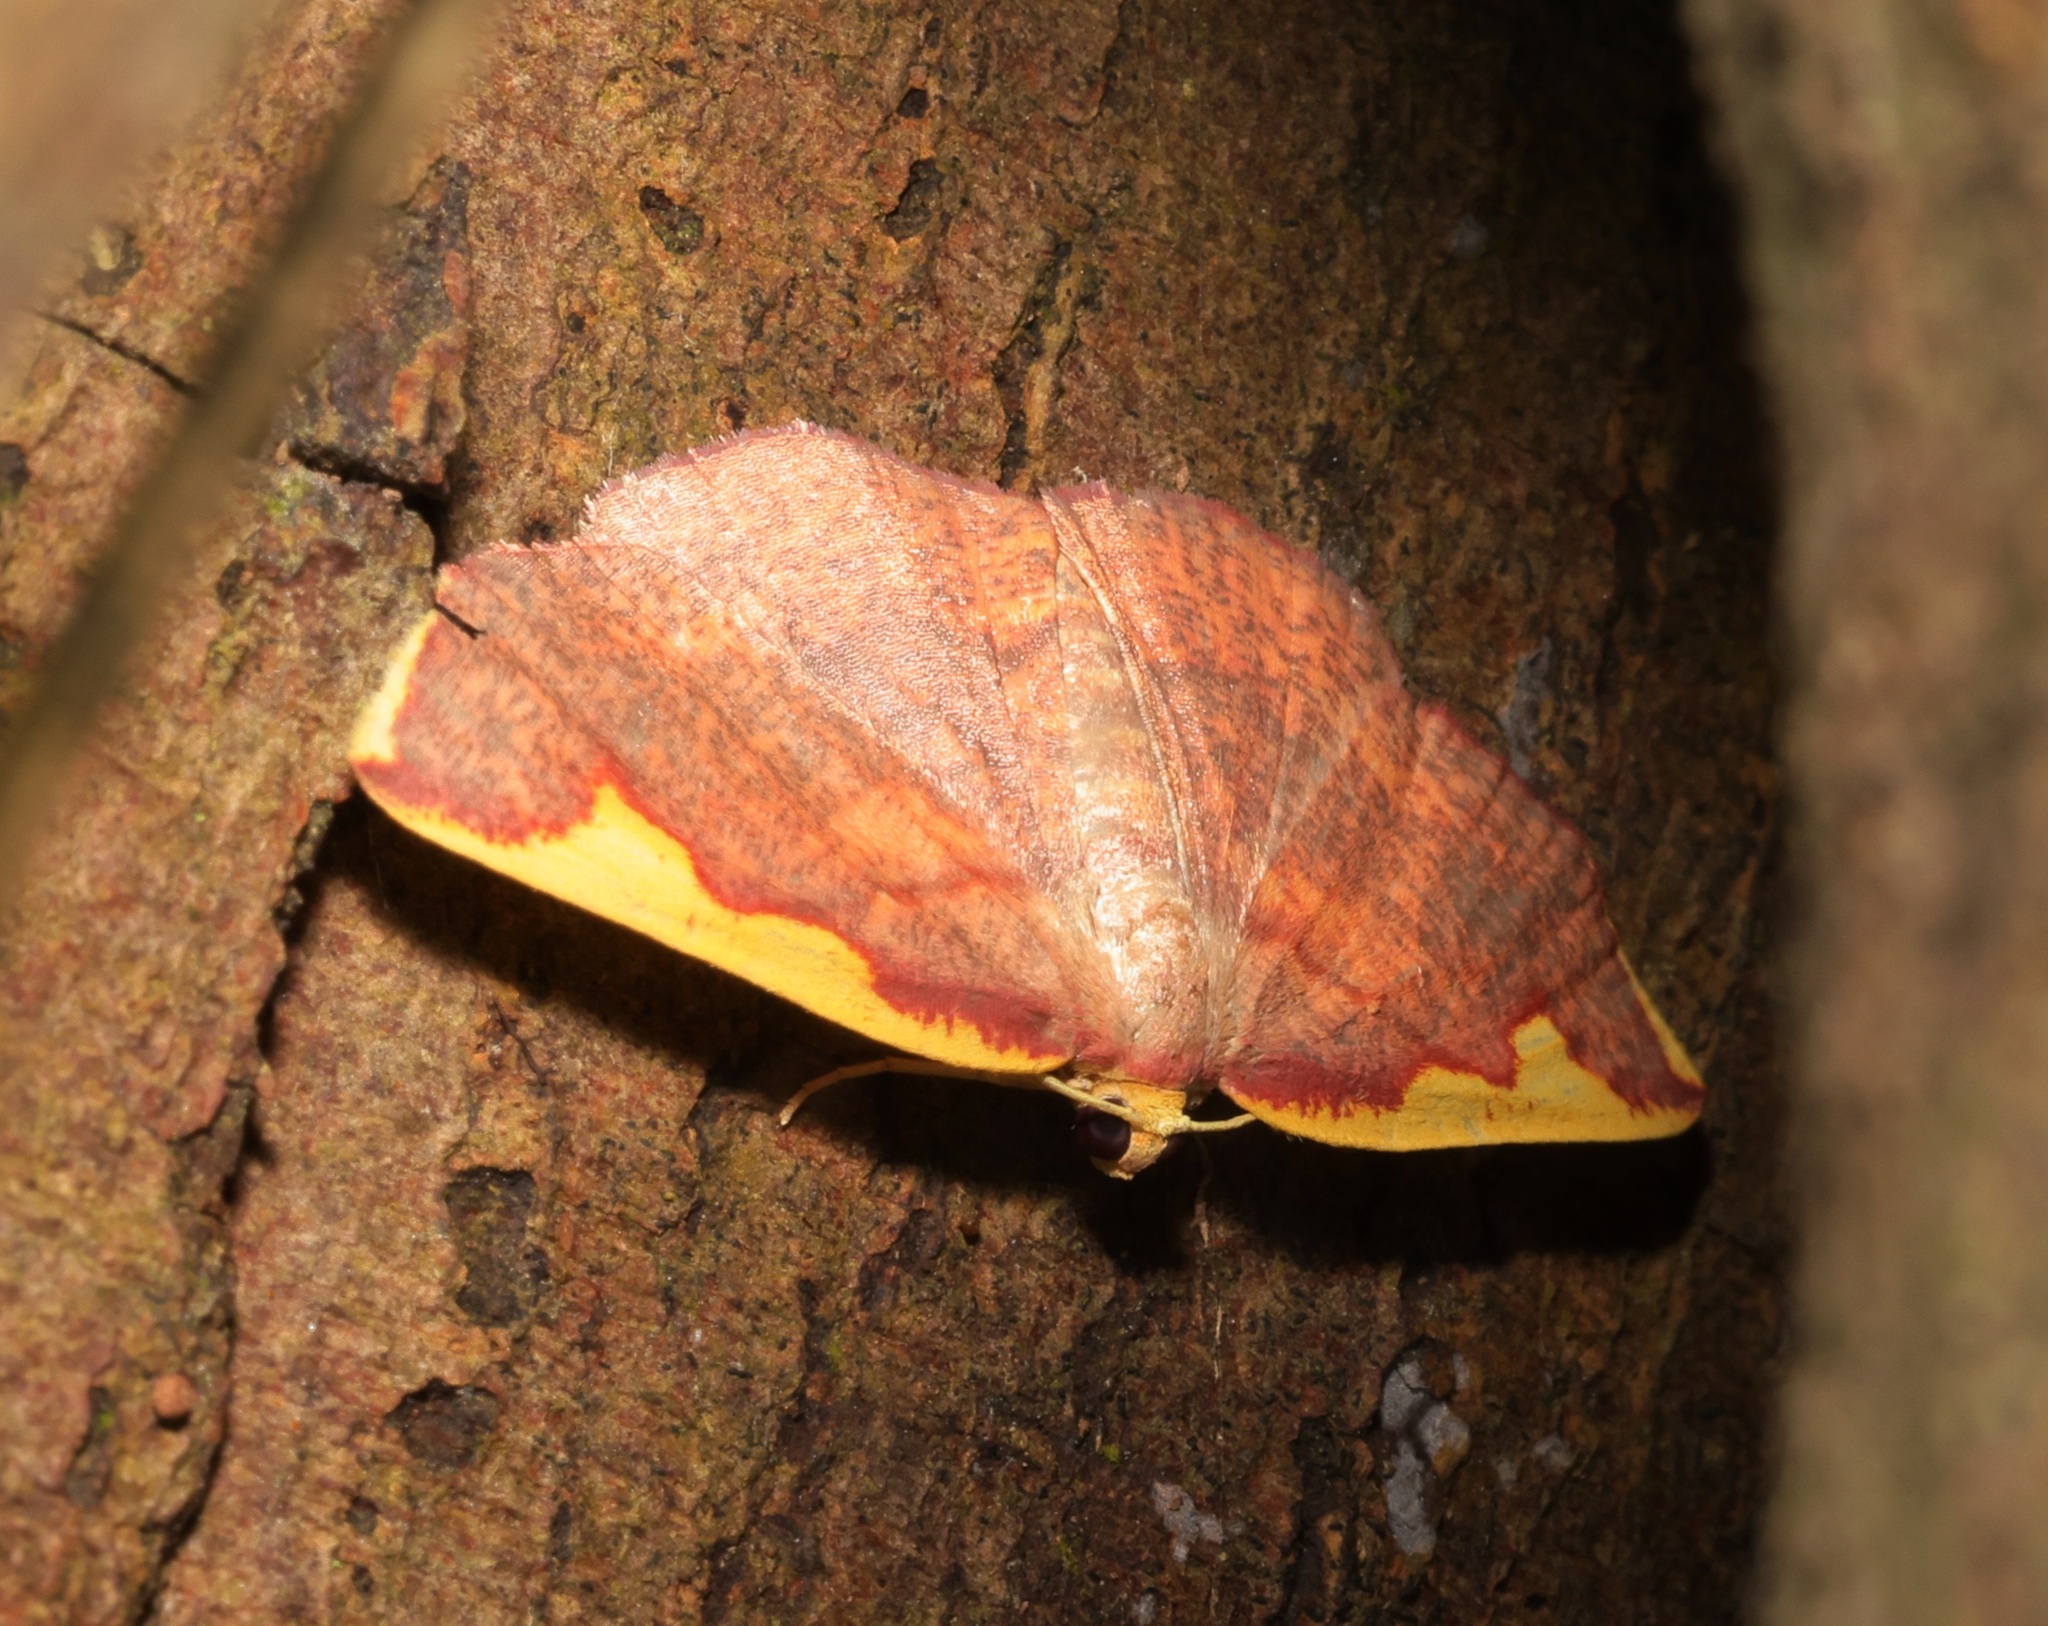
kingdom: Animalia
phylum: Arthropoda
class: Insecta
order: Lepidoptera
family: Geometridae
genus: Nothomiza
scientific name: Nothomiza flavicosta
